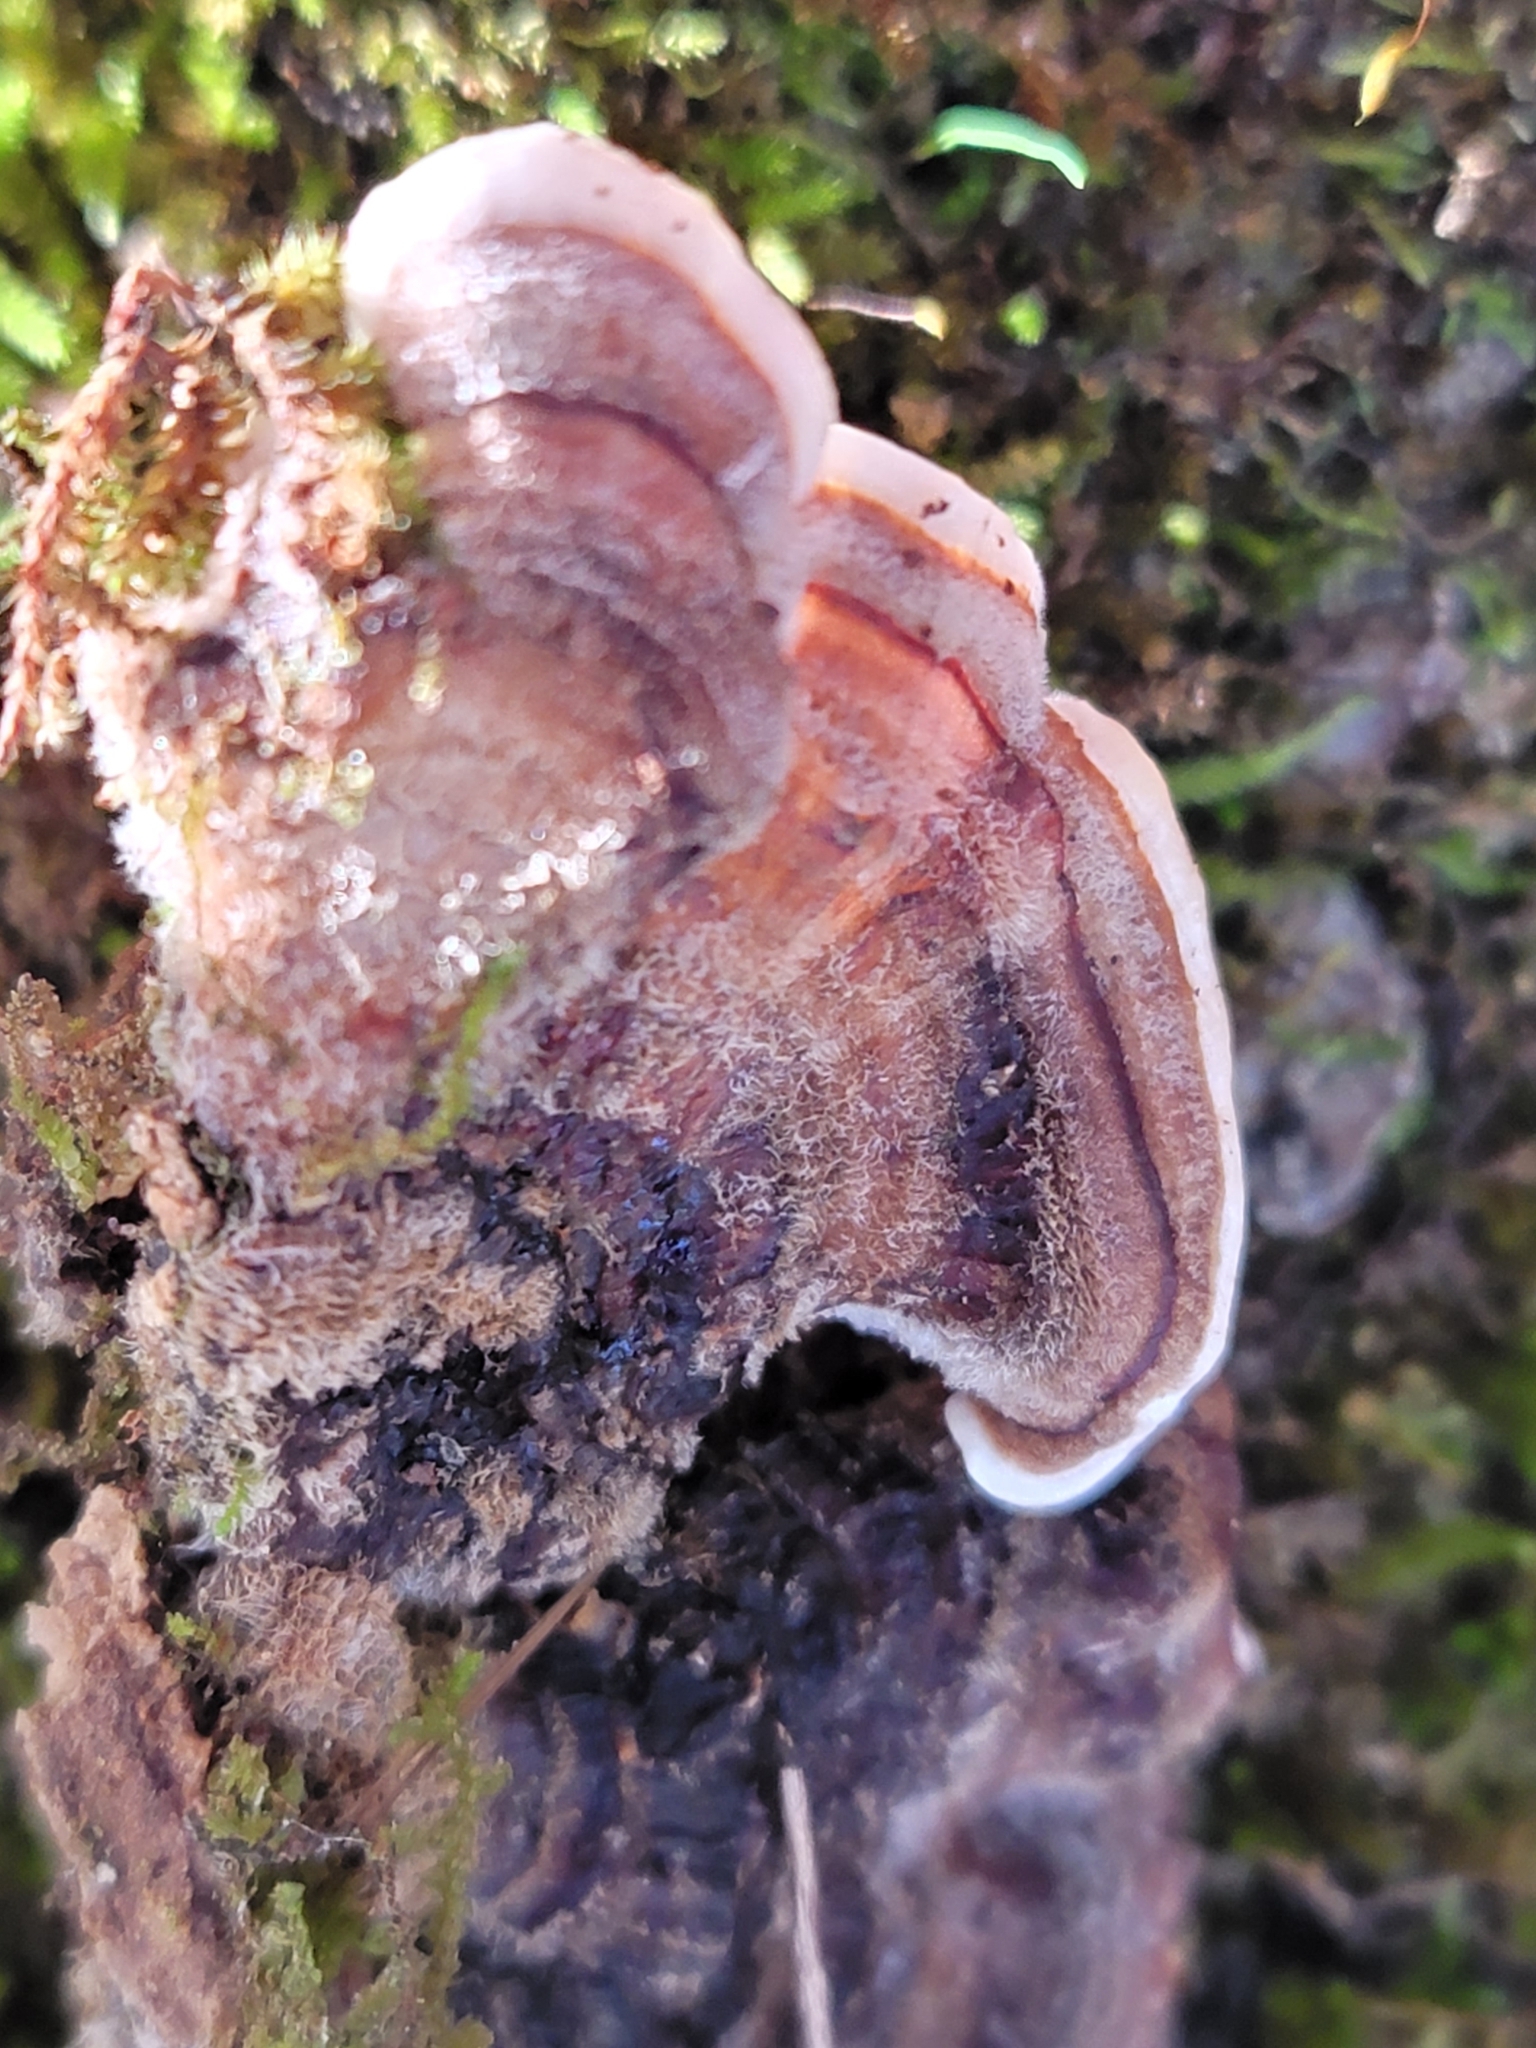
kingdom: Fungi
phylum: Basidiomycota
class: Agaricomycetes
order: Polyporales
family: Polyporaceae
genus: Trametes
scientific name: Trametes versicolor
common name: Turkeytail
